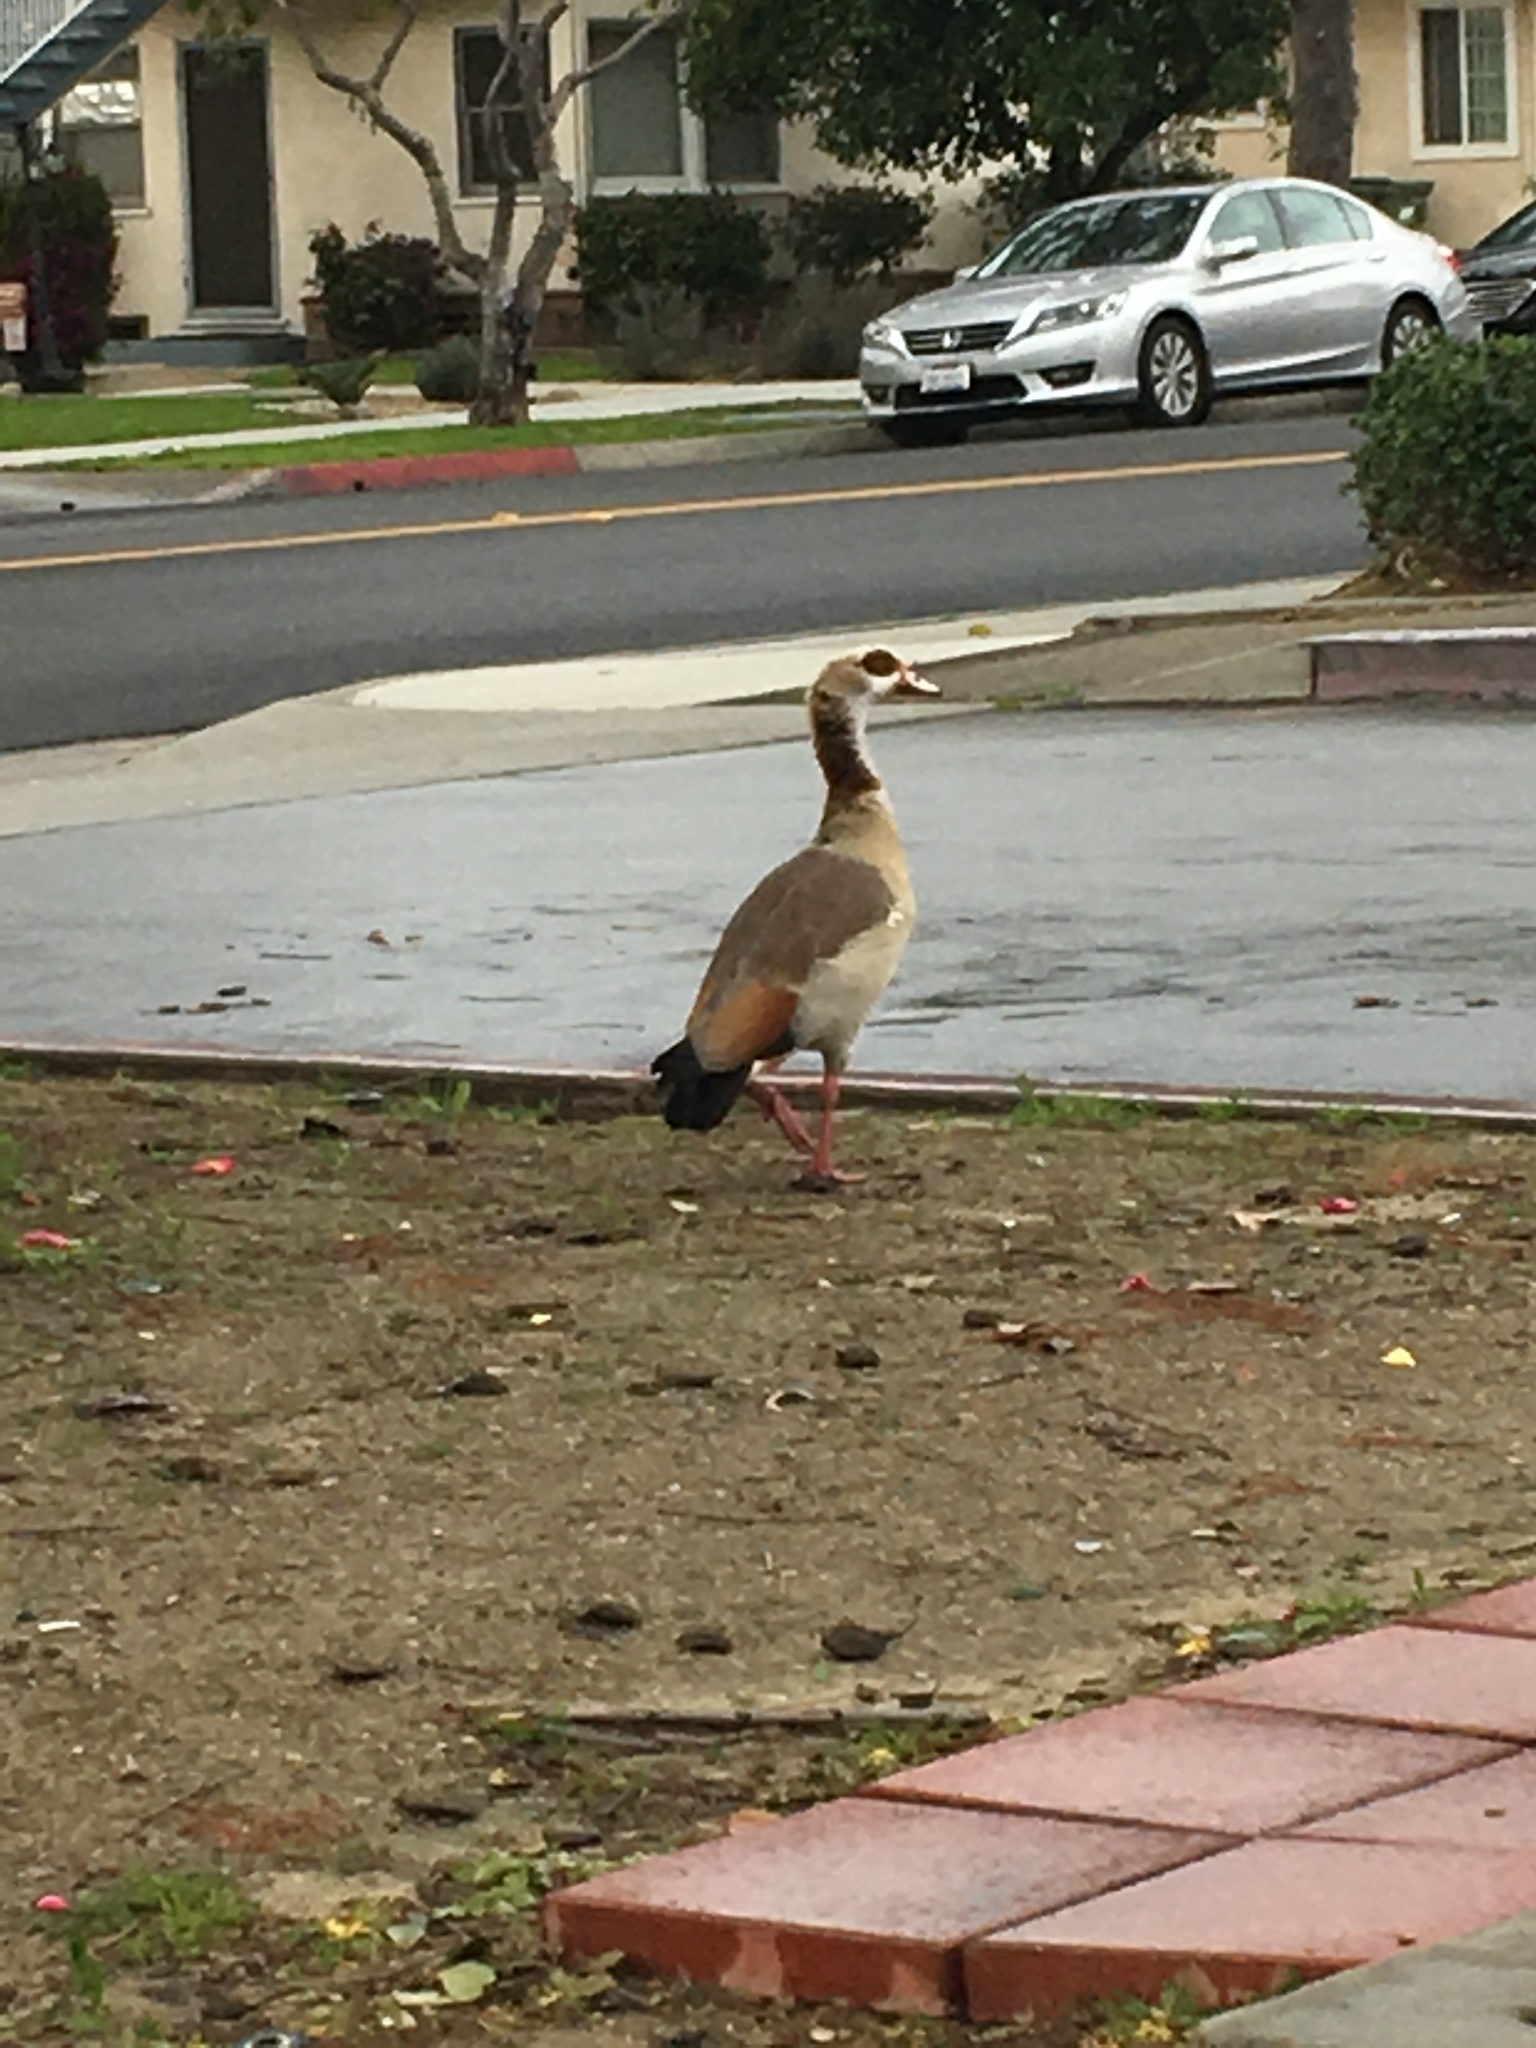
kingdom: Animalia
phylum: Chordata
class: Aves
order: Anseriformes
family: Anatidae
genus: Alopochen
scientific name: Alopochen aegyptiaca
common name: Egyptian goose
